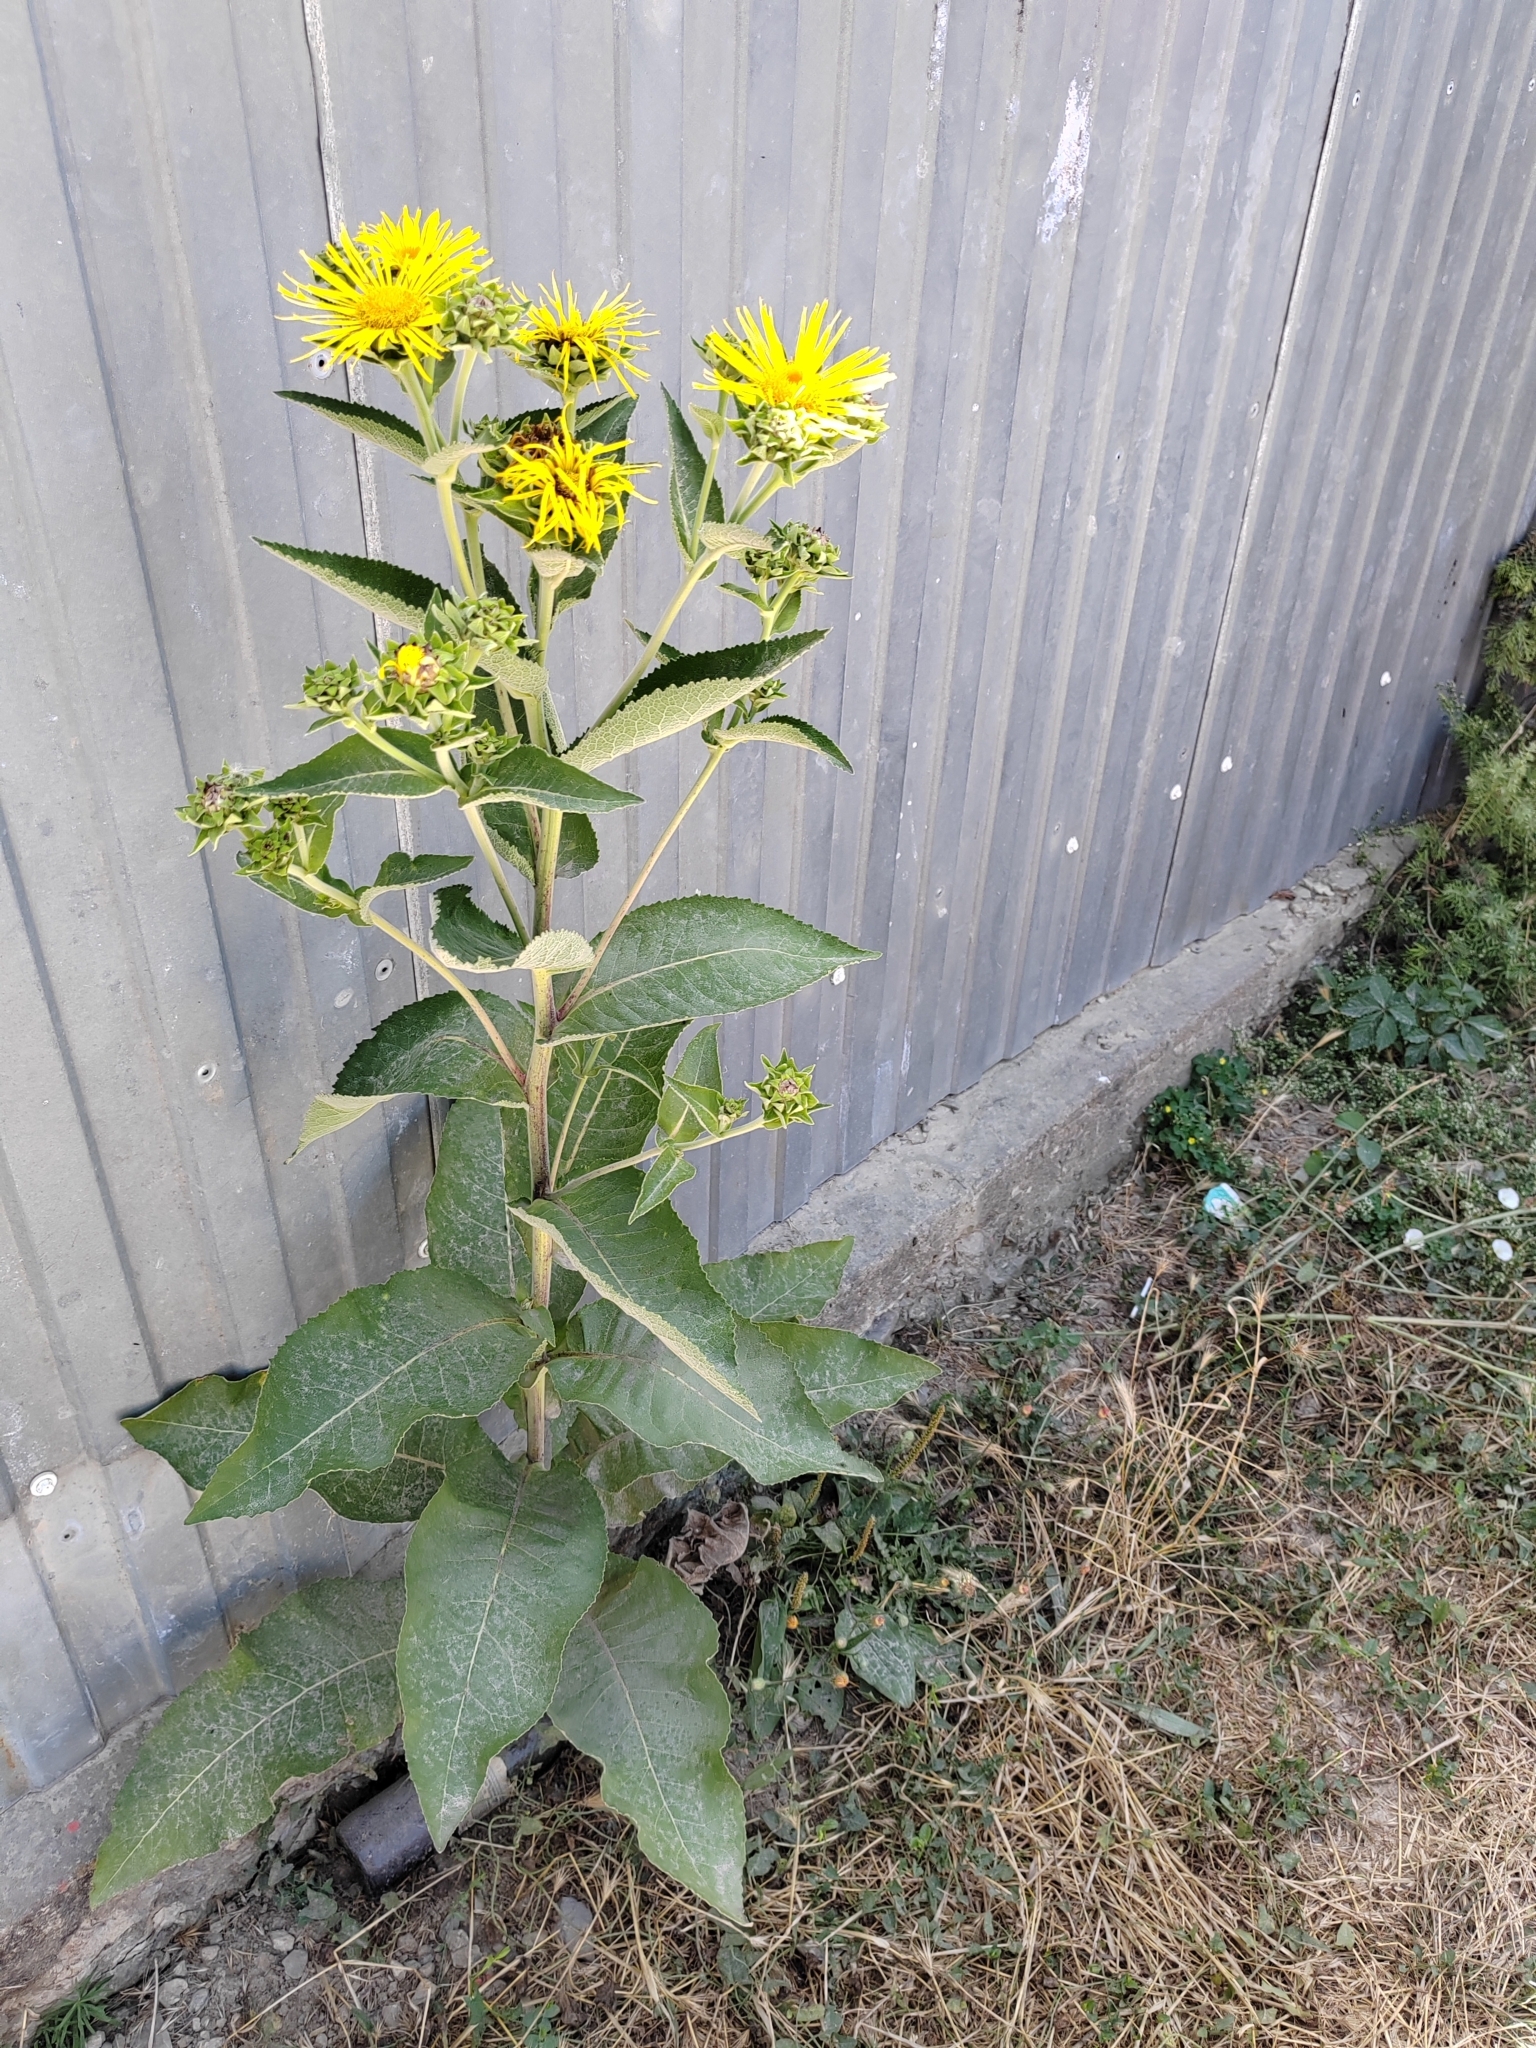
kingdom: Plantae
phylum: Tracheophyta
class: Magnoliopsida
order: Asterales
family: Asteraceae
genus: Inula
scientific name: Inula helenium
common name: Elecampane
